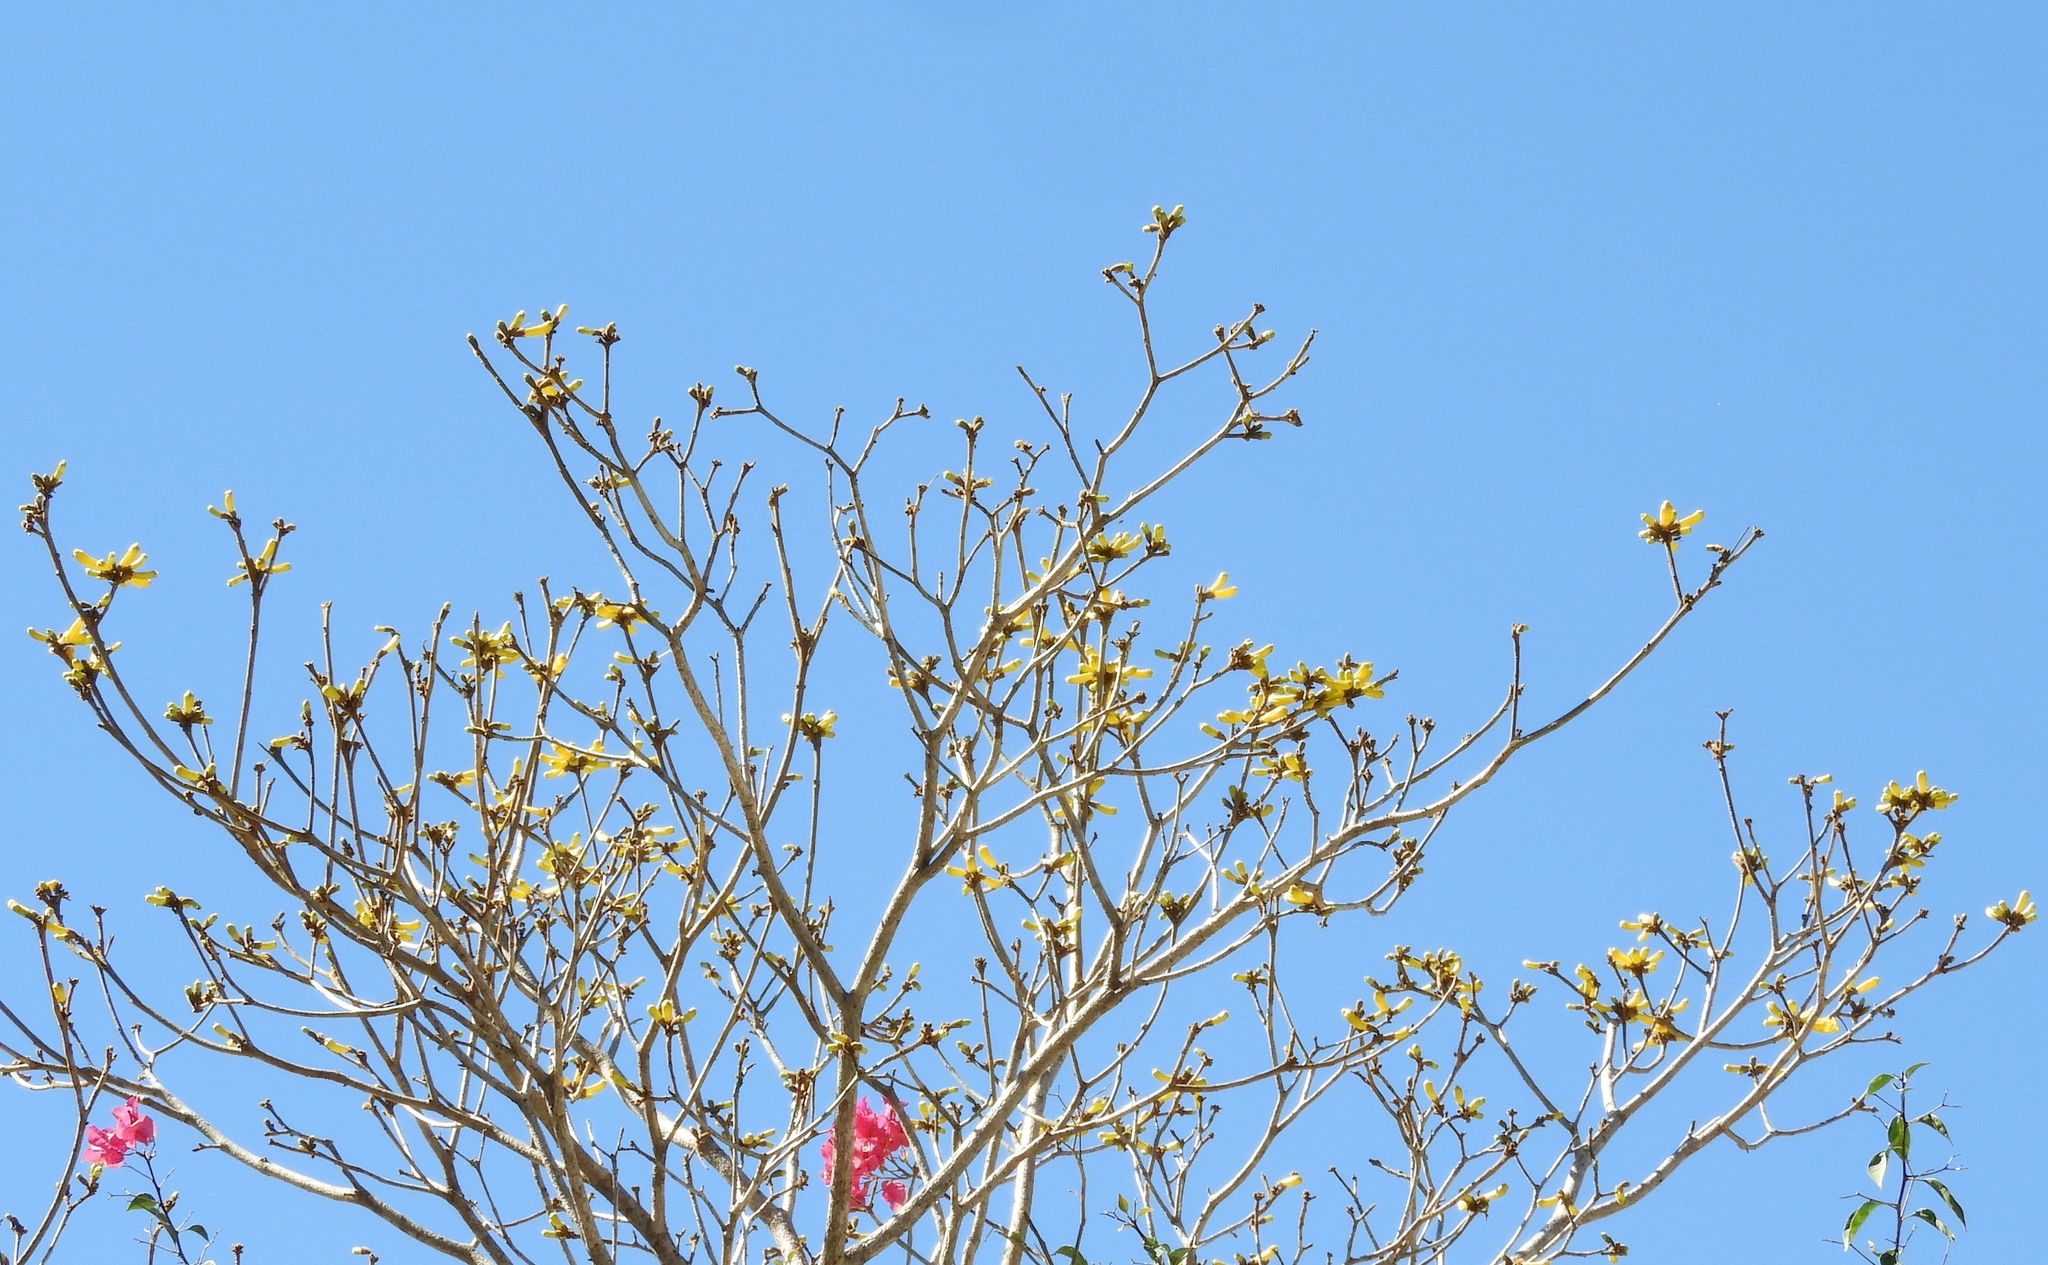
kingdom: Plantae
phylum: Tracheophyta
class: Magnoliopsida
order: Lamiales
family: Bignoniaceae
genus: Handroanthus
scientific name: Handroanthus chrysanthus
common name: Trumpet trees
